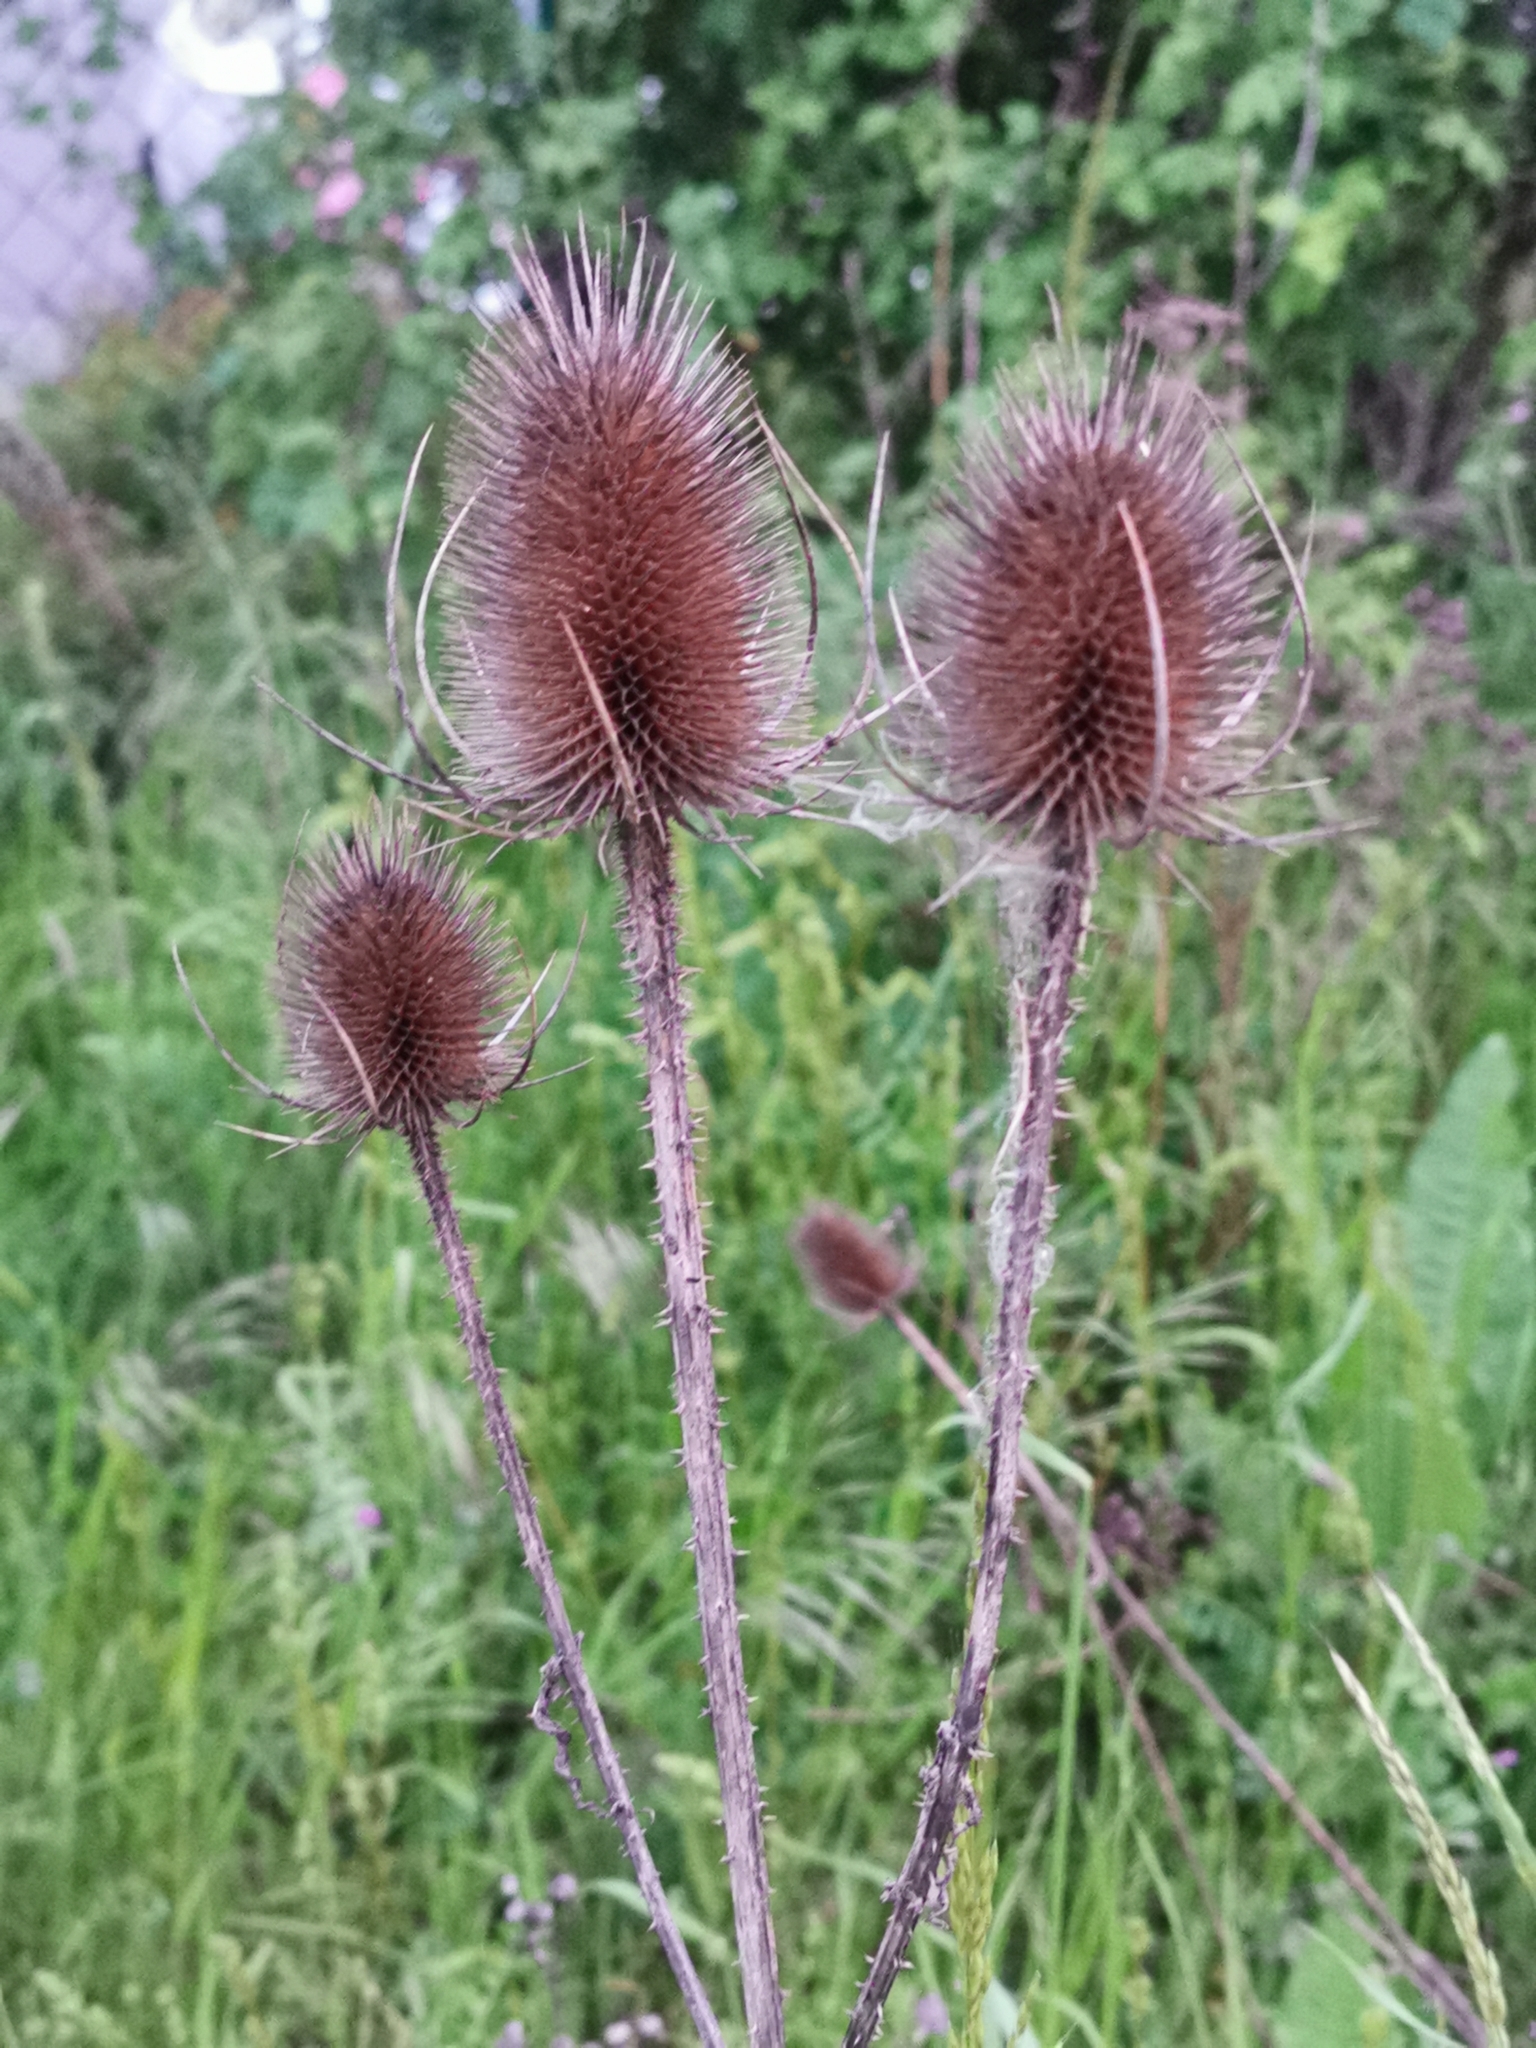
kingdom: Plantae
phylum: Tracheophyta
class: Magnoliopsida
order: Dipsacales
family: Caprifoliaceae
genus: Dipsacus
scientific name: Dipsacus fullonum
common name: Teasel
